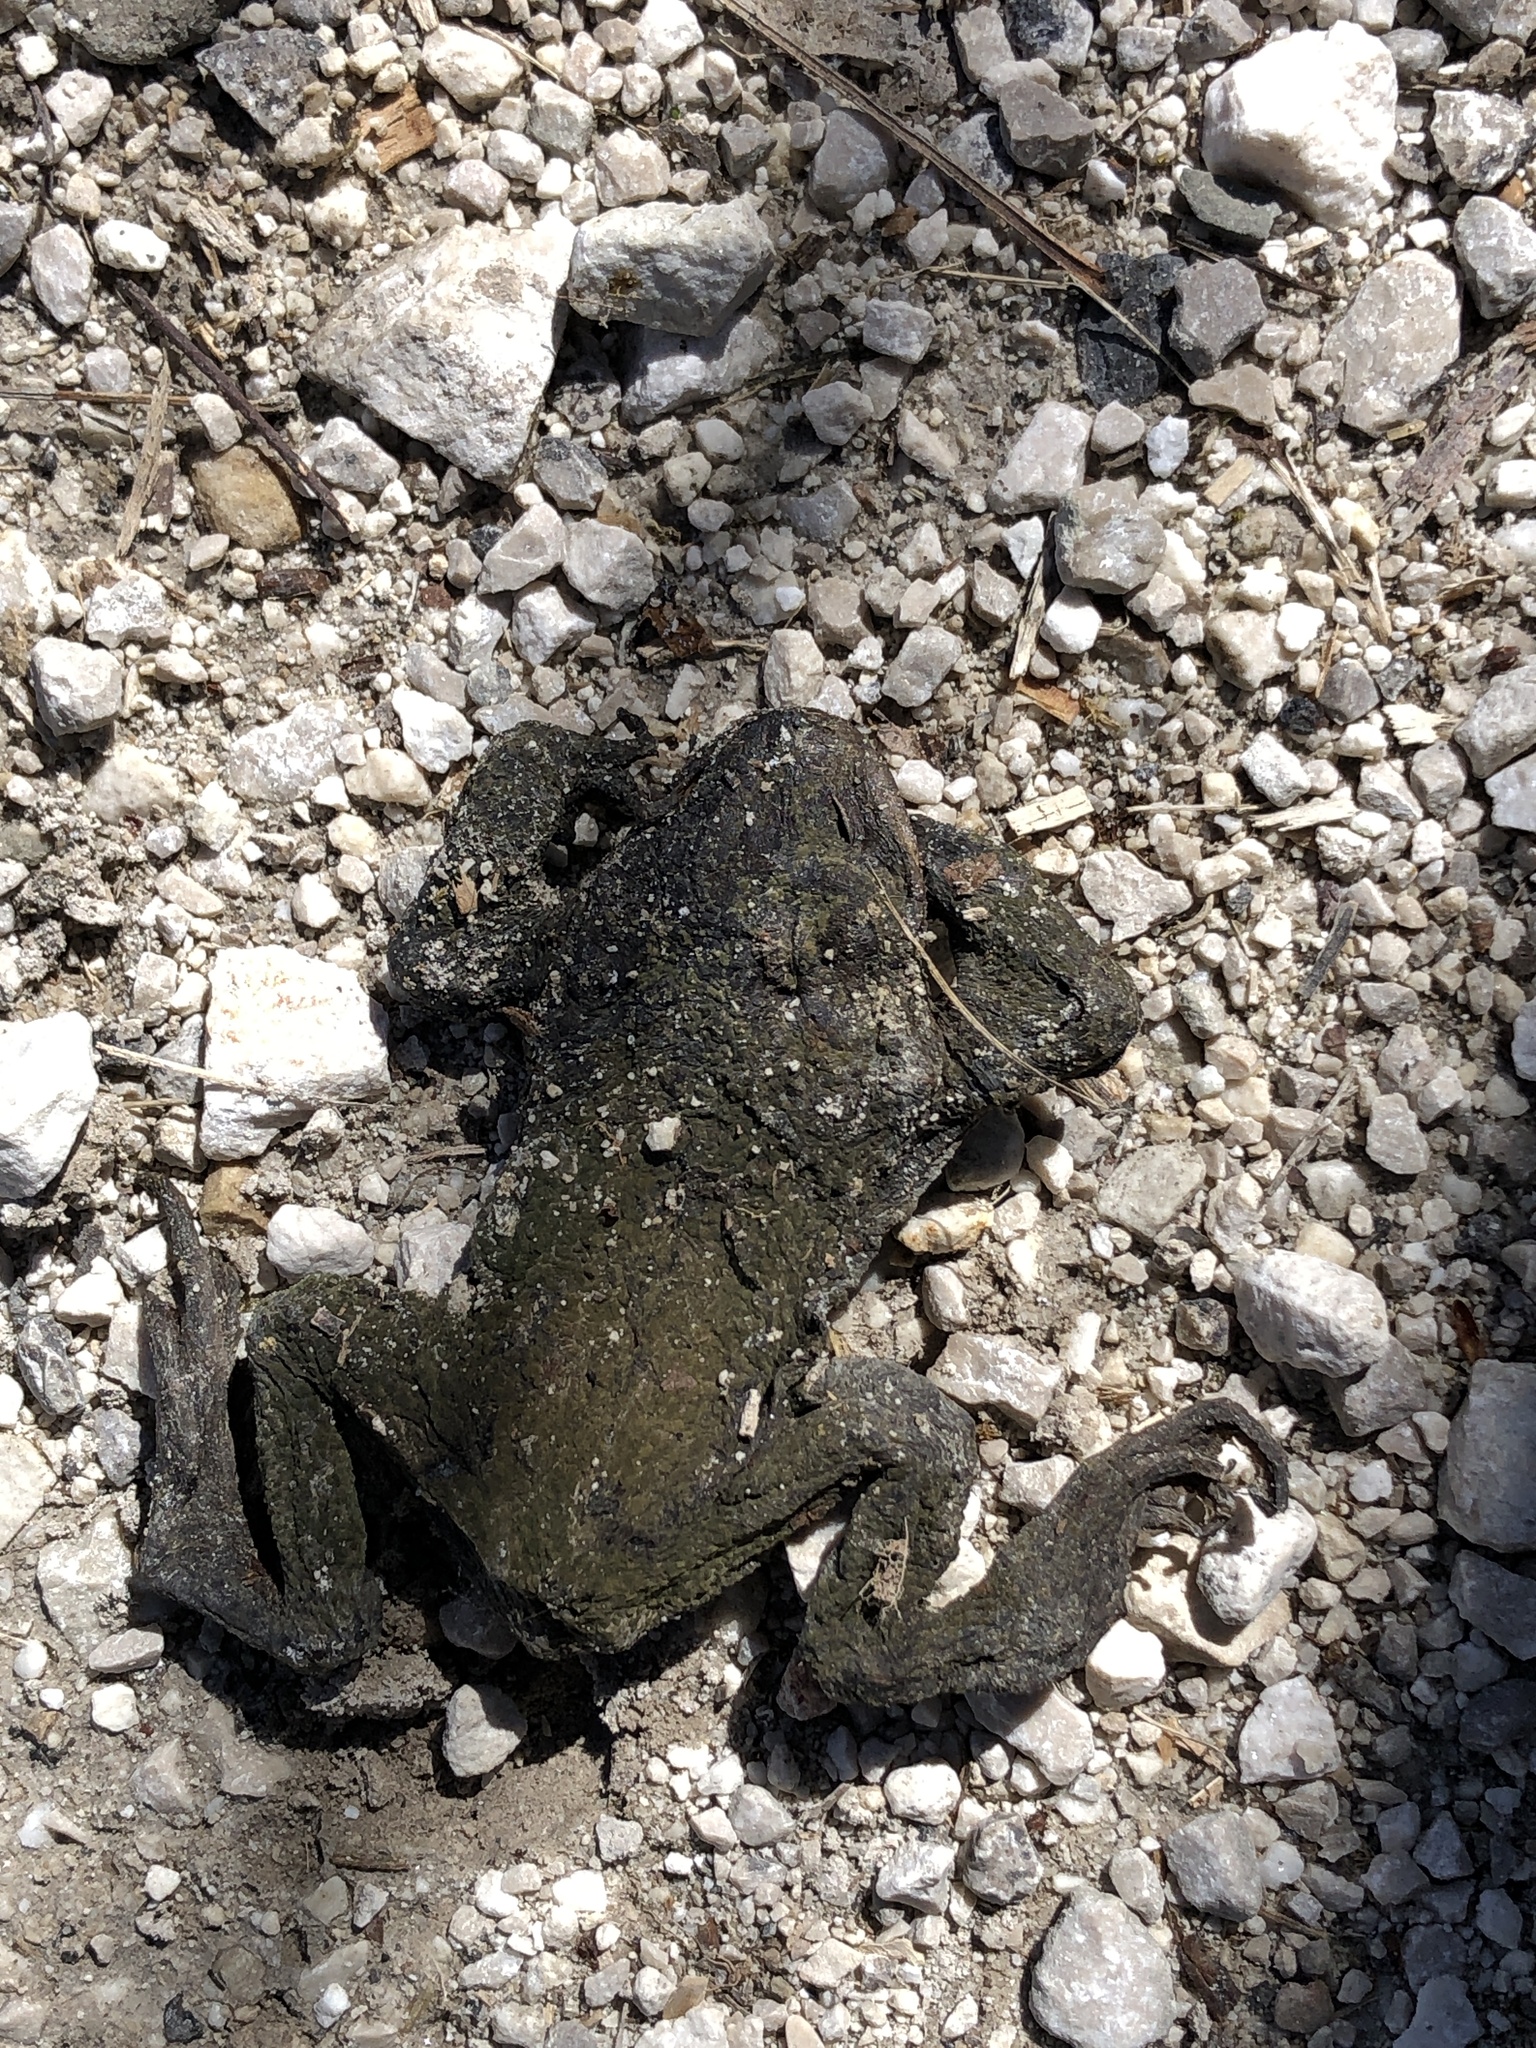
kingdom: Animalia
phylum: Chordata
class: Amphibia
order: Anura
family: Bufonidae
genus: Bufo
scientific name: Bufo bufo
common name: Common toad
